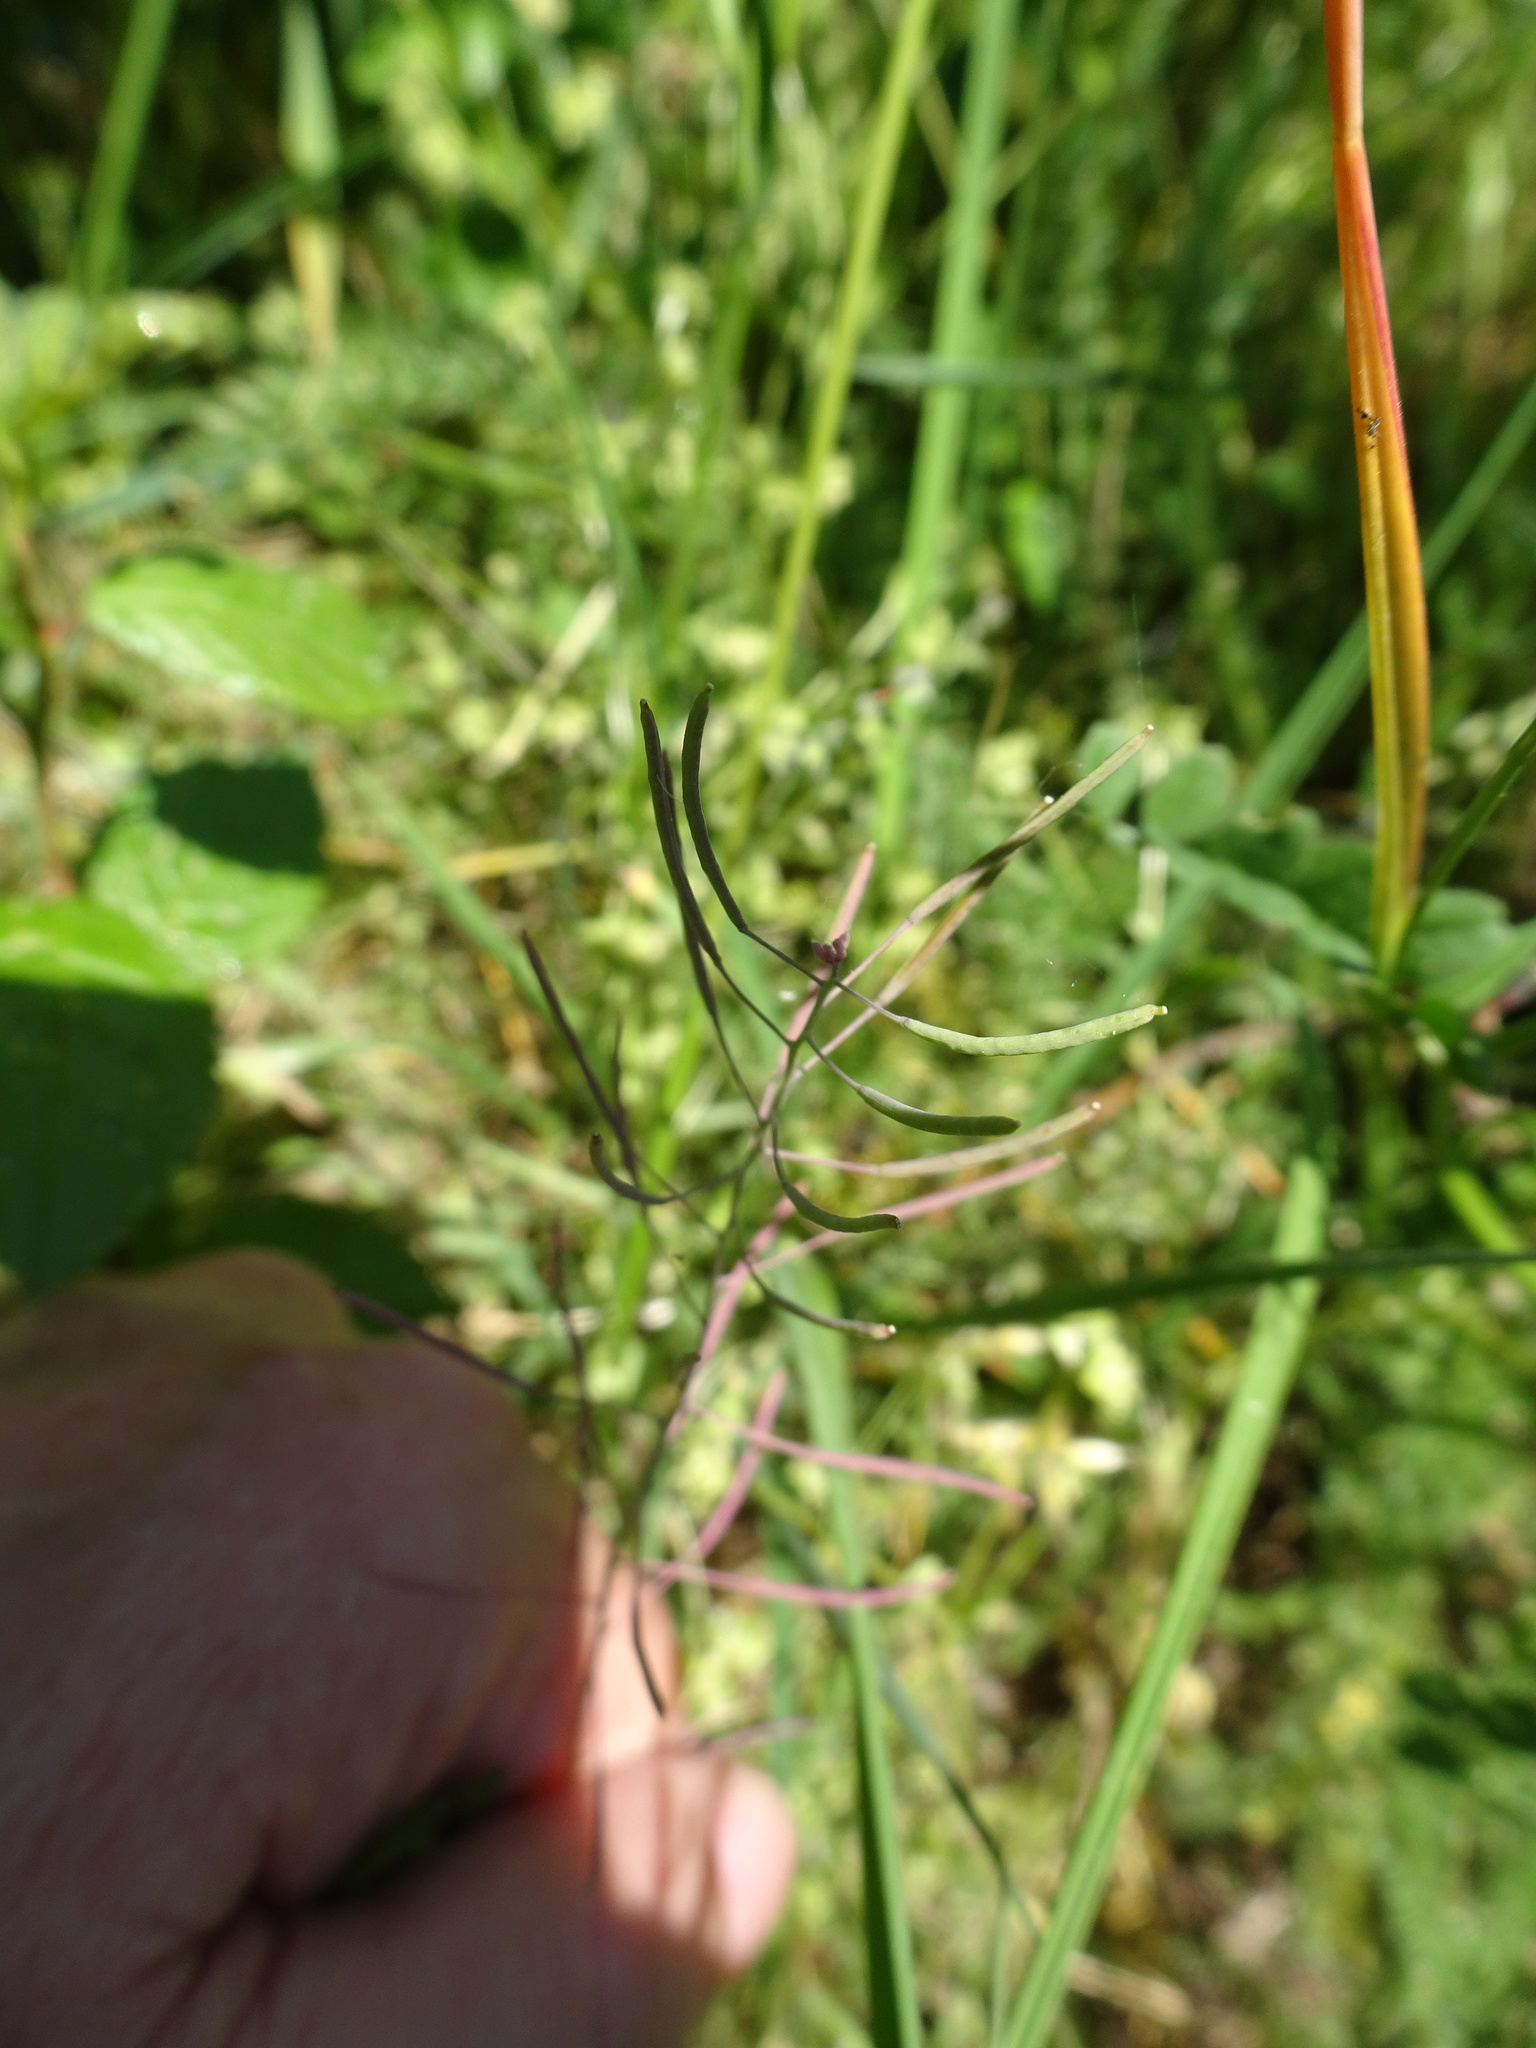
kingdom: Plantae
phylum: Tracheophyta
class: Magnoliopsida
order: Brassicales
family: Brassicaceae
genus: Arabidopsis
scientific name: Arabidopsis thaliana
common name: Thale cress
